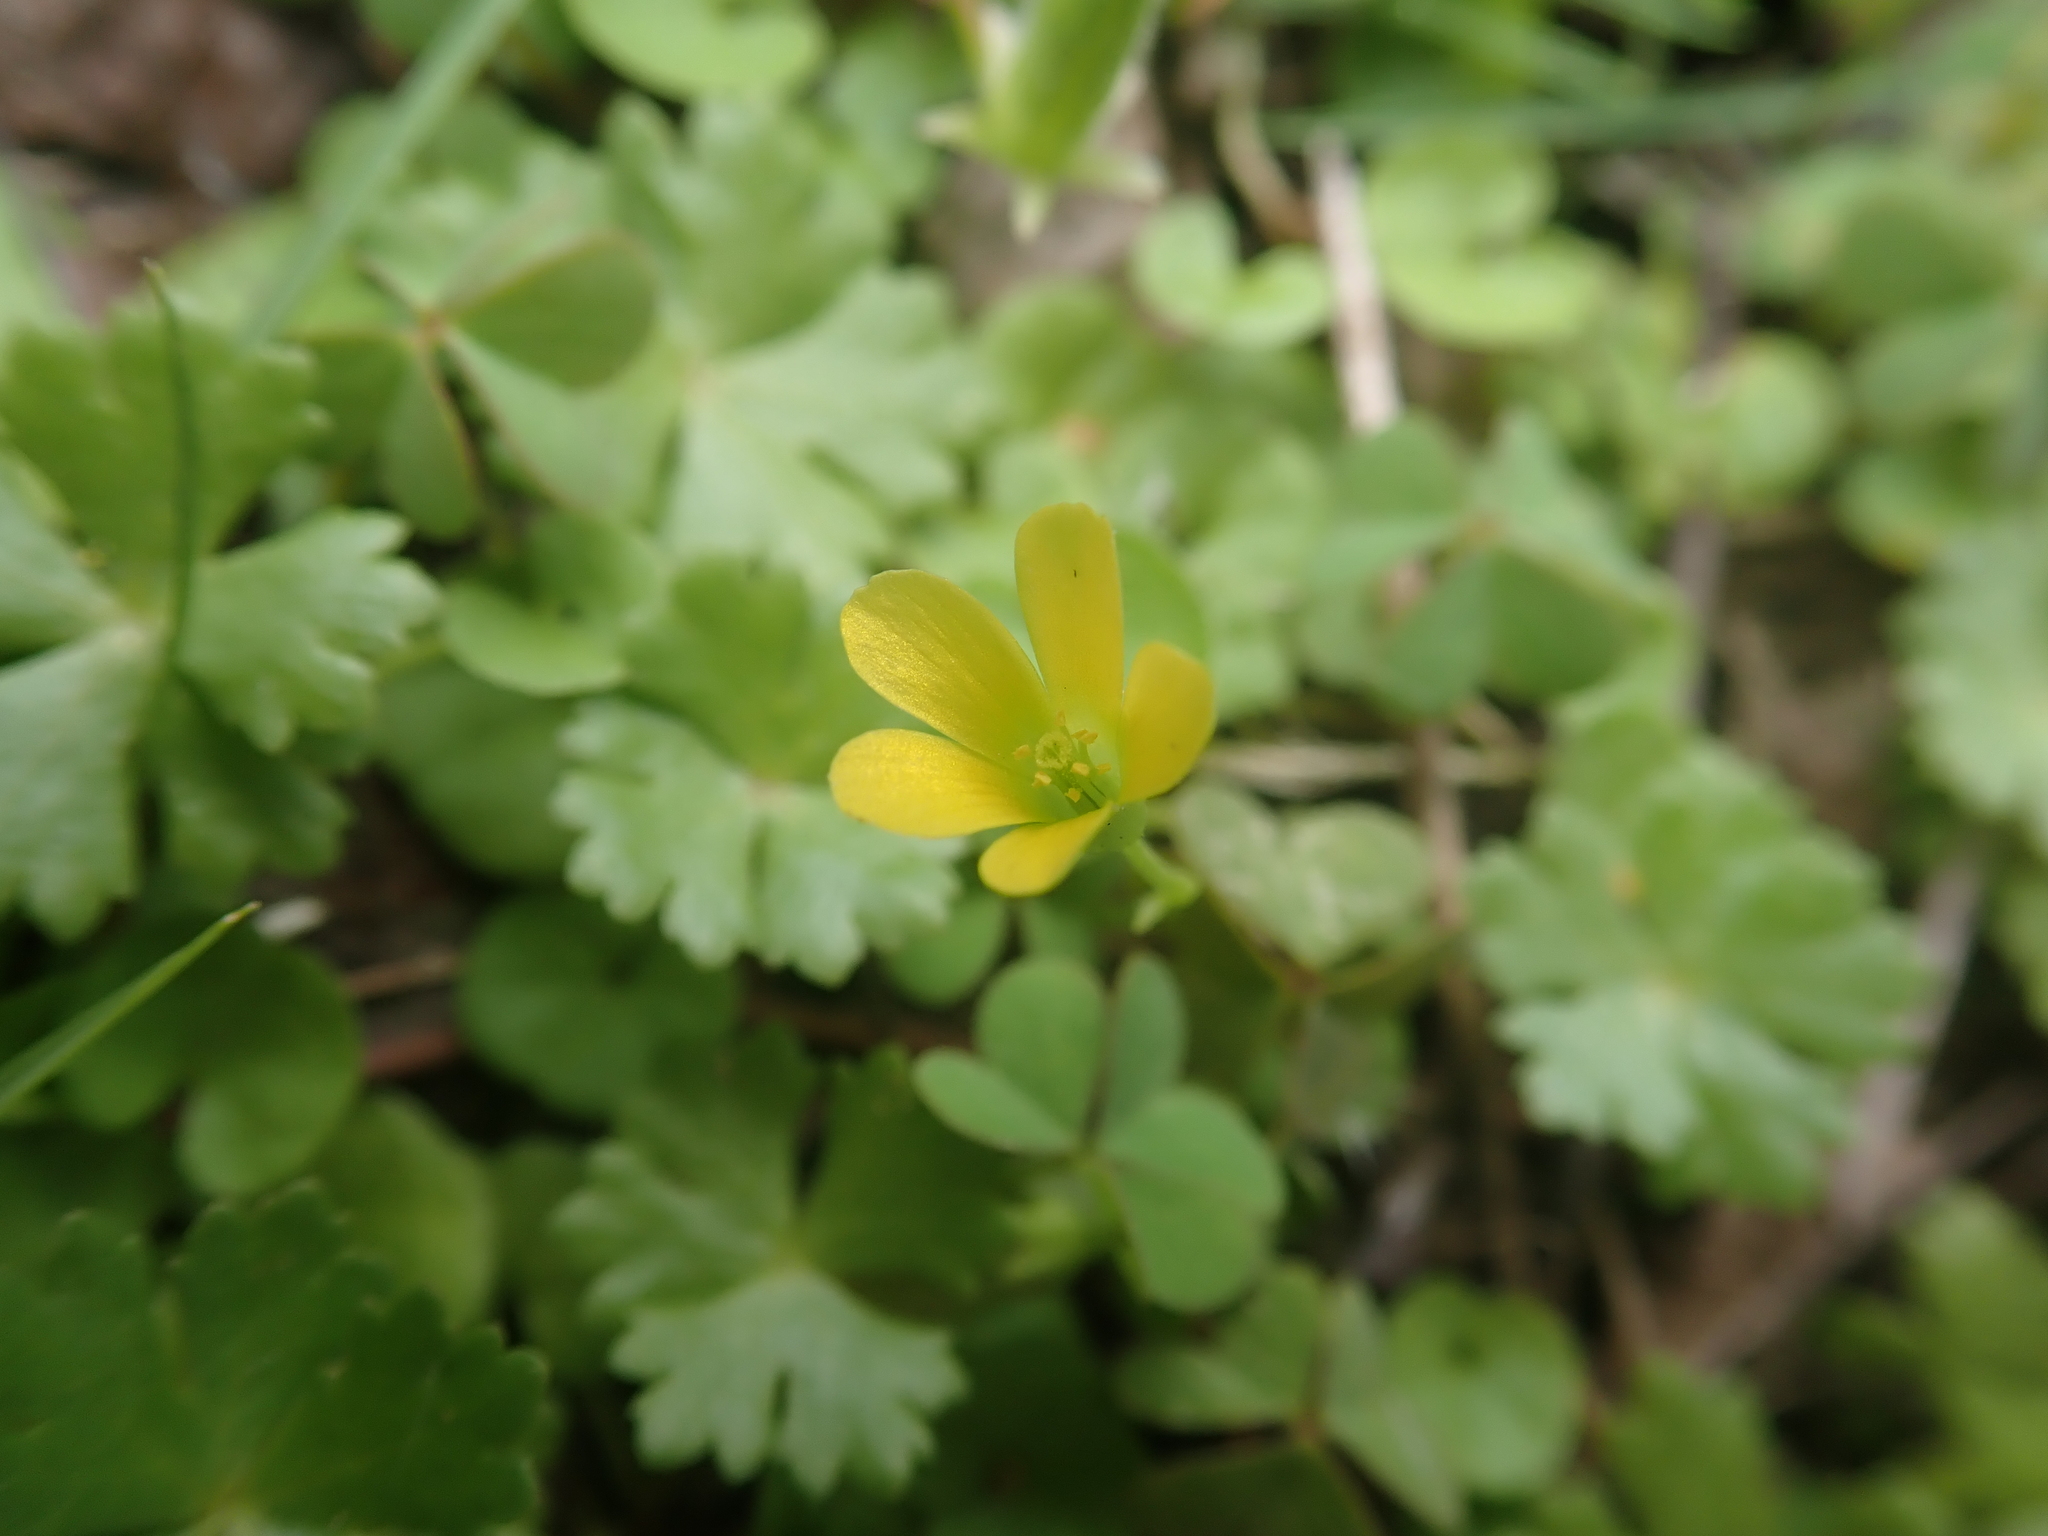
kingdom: Plantae
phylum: Tracheophyta
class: Magnoliopsida
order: Oxalidales
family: Oxalidaceae
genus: Oxalis
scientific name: Oxalis corniculata
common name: Procumbent yellow-sorrel
